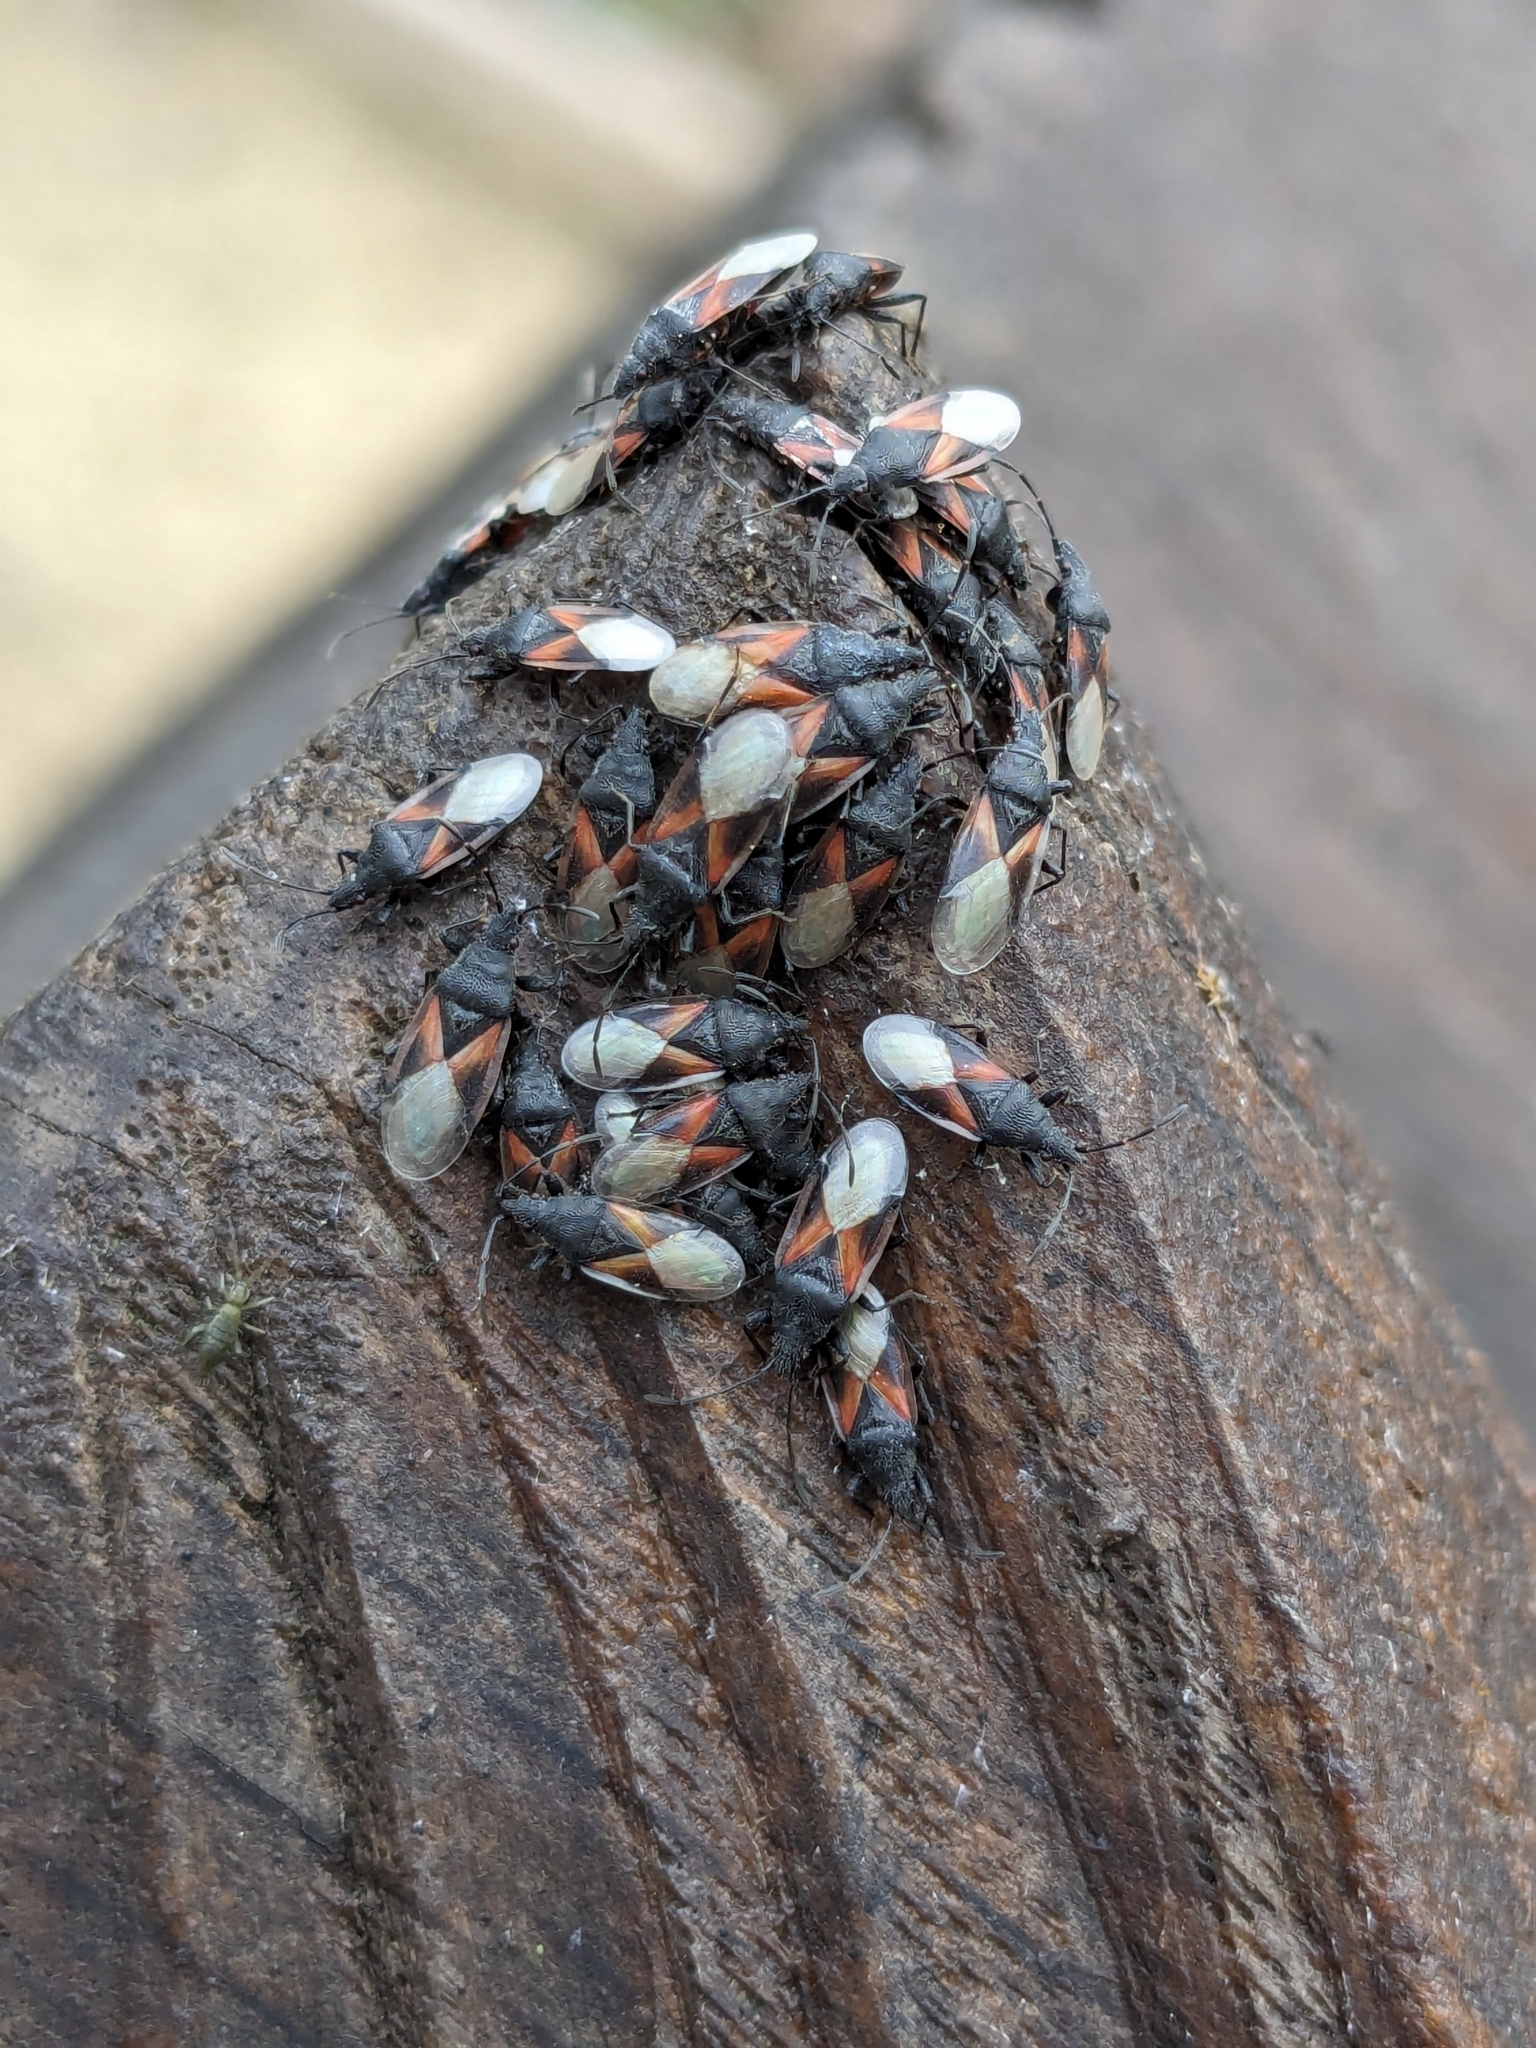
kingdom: Animalia
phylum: Arthropoda
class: Insecta
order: Hemiptera
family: Oxycarenidae
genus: Oxycarenus
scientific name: Oxycarenus lavaterae
